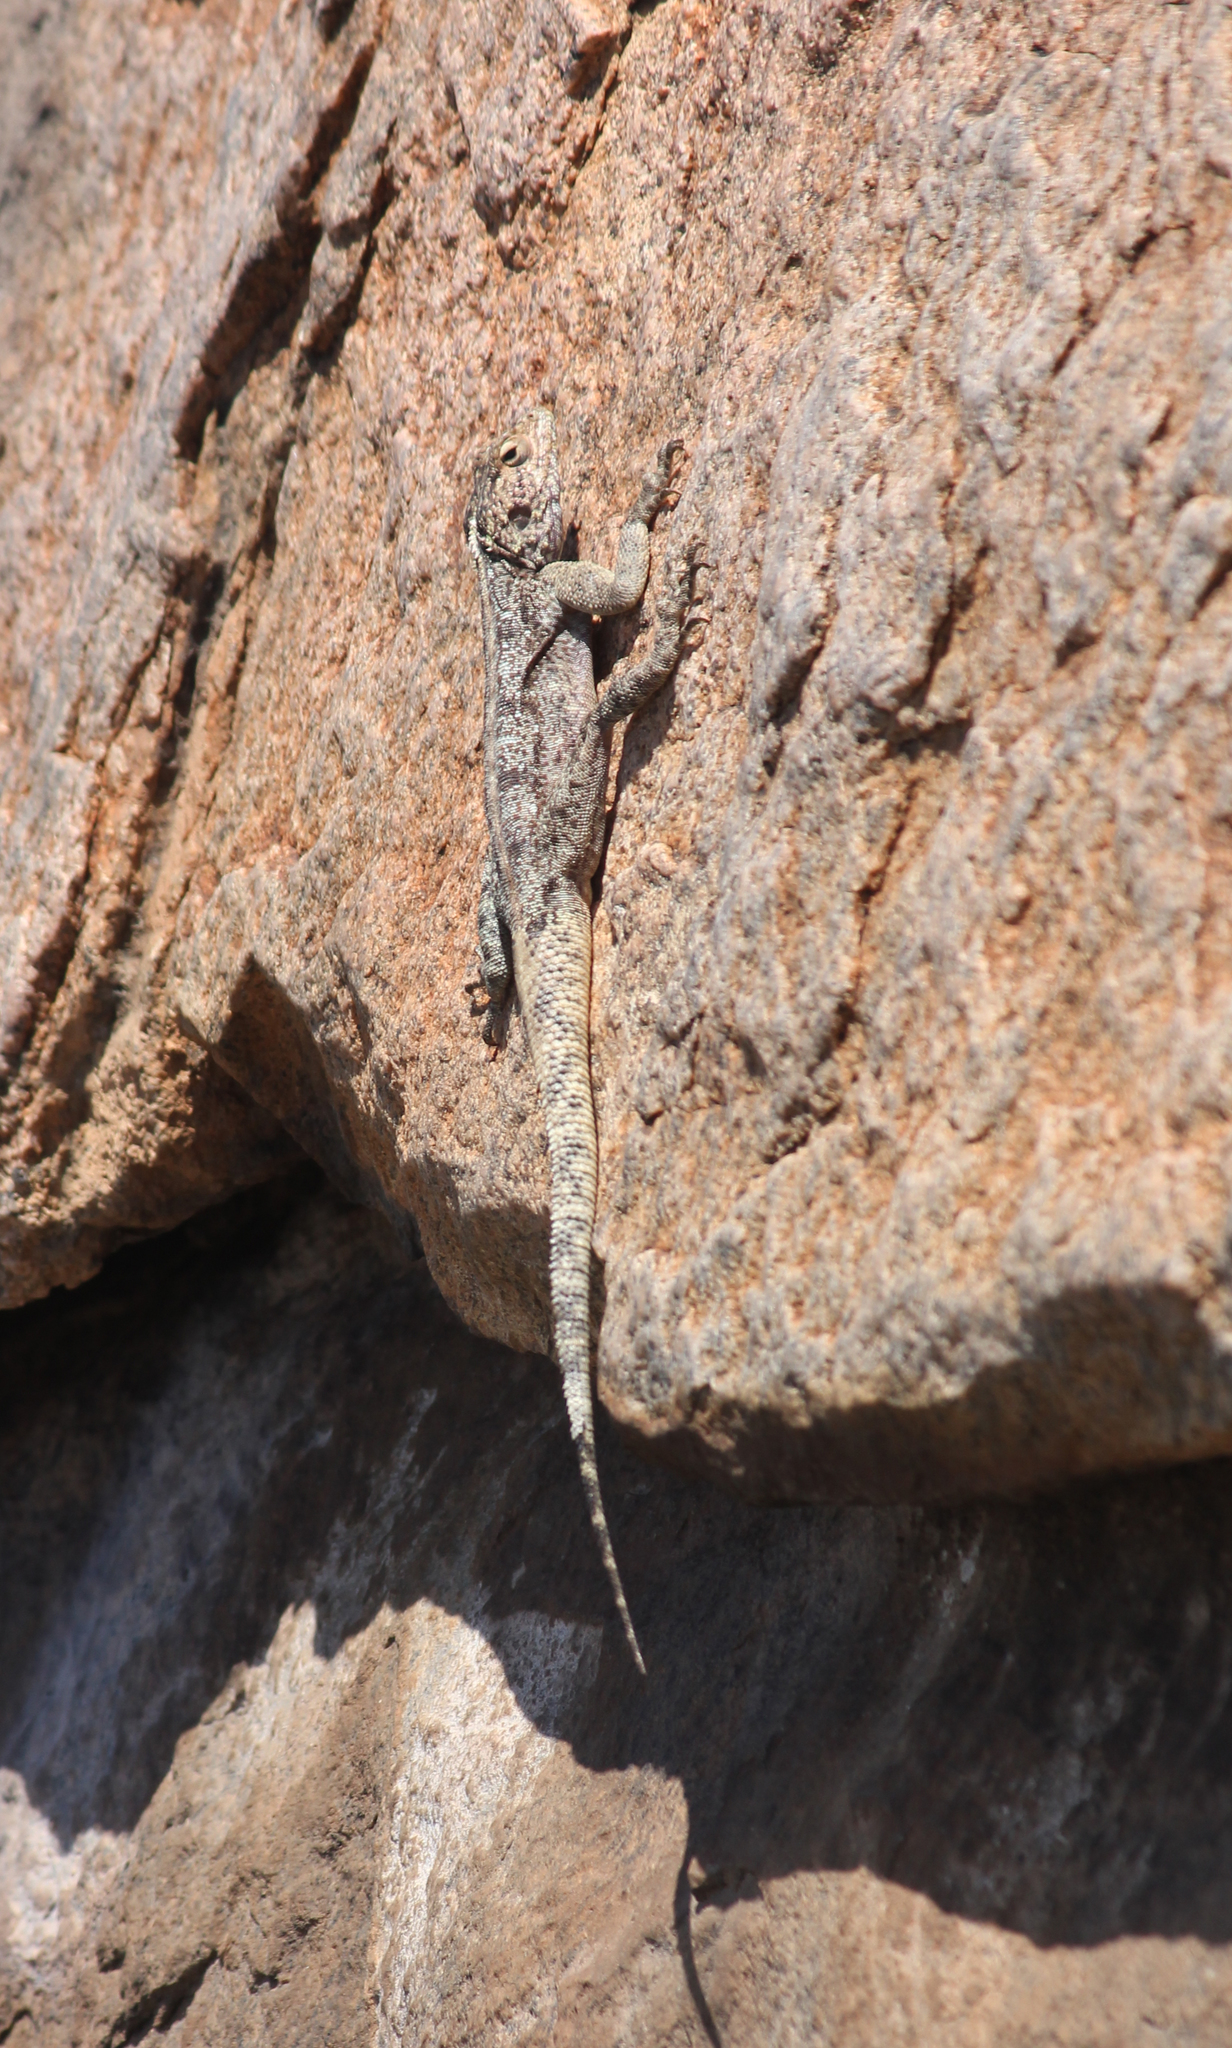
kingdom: Animalia
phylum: Chordata
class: Squamata
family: Agamidae
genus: Agama
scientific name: Agama atra
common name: Southern african rock agama
